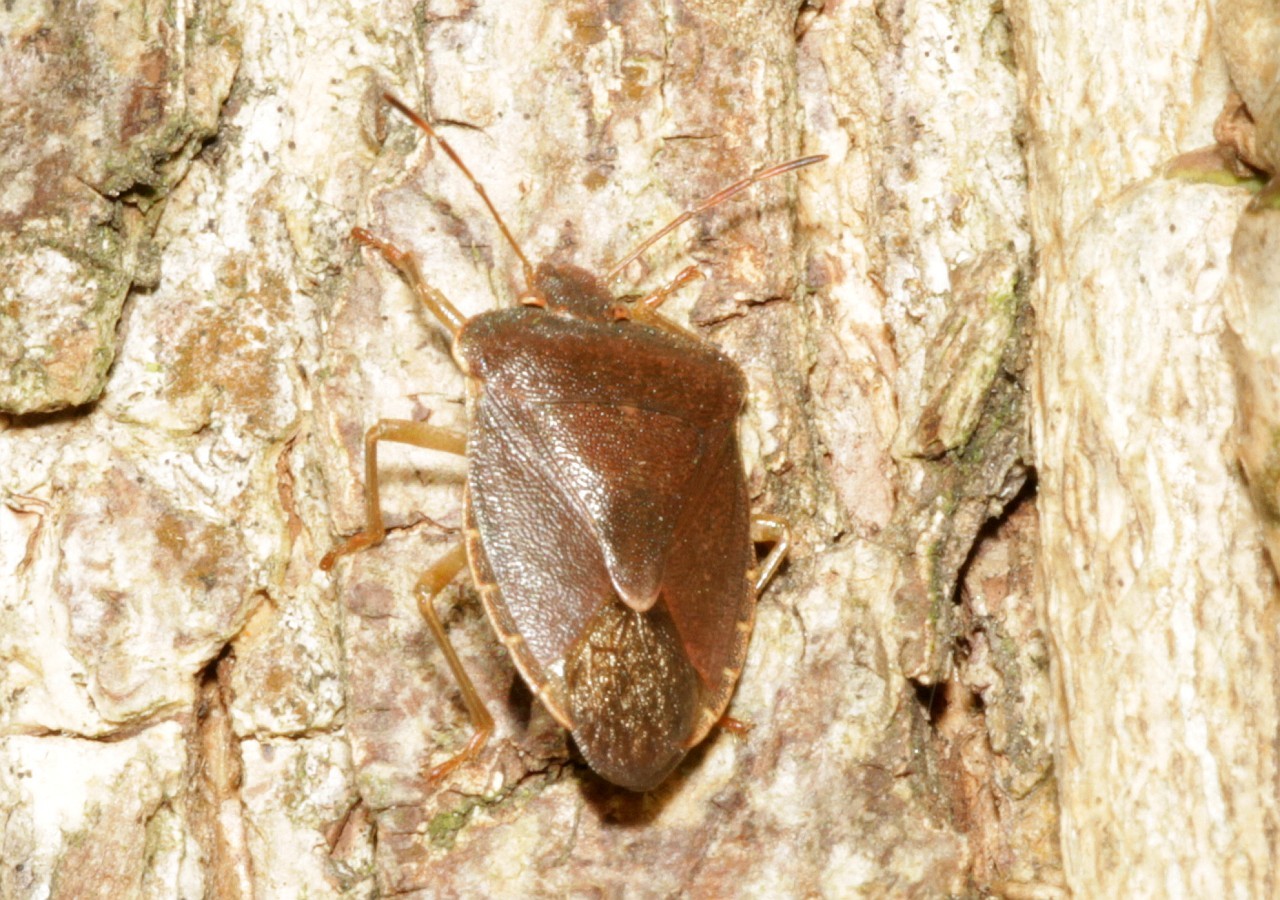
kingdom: Animalia
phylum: Arthropoda
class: Insecta
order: Hemiptera
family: Pentatomidae
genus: Palomena
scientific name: Palomena prasina
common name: Green shieldbug
